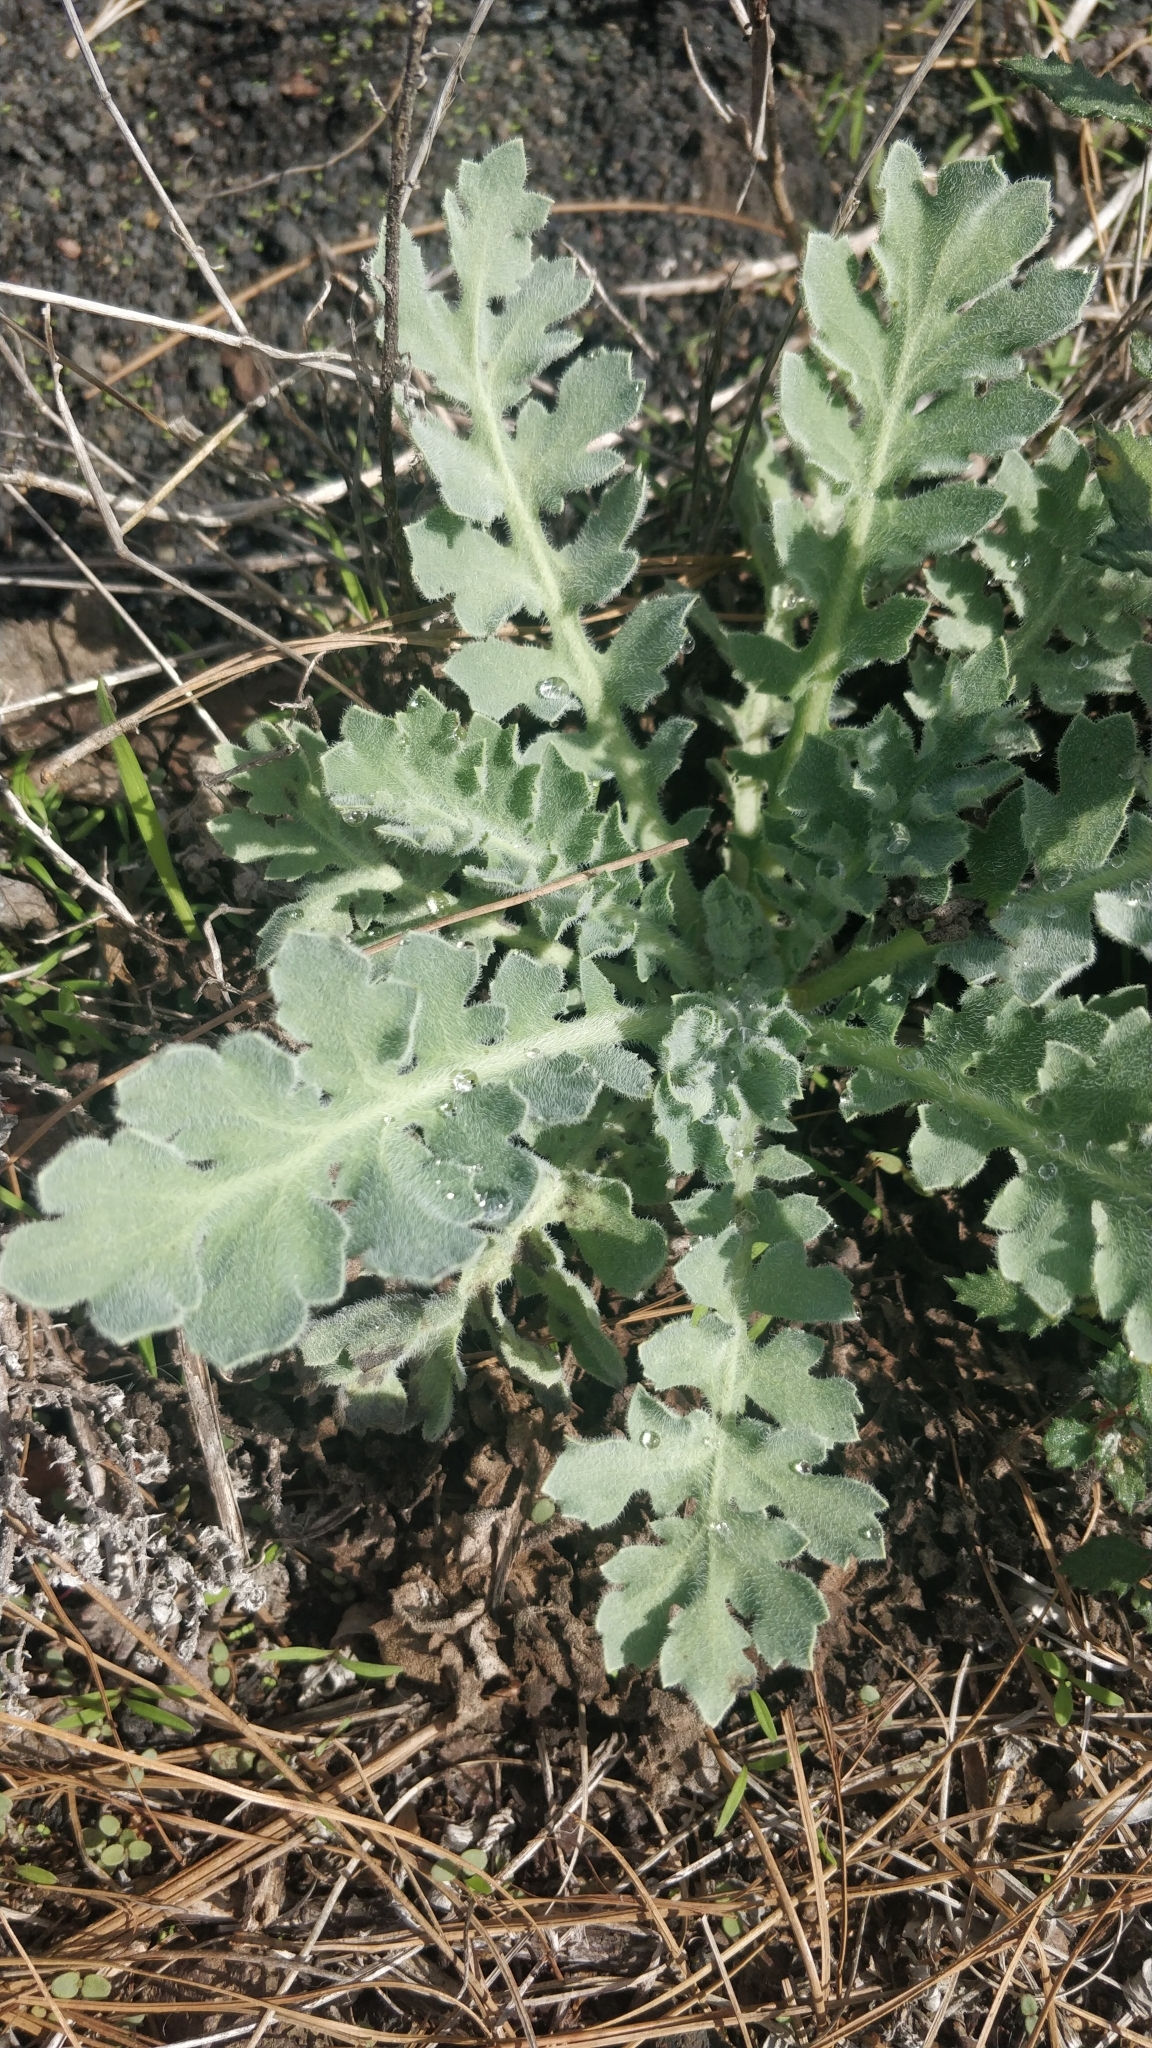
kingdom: Plantae
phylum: Tracheophyta
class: Magnoliopsida
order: Ranunculales
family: Papaveraceae
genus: Glaucium
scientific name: Glaucium flavum
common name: Yellow horned-poppy
